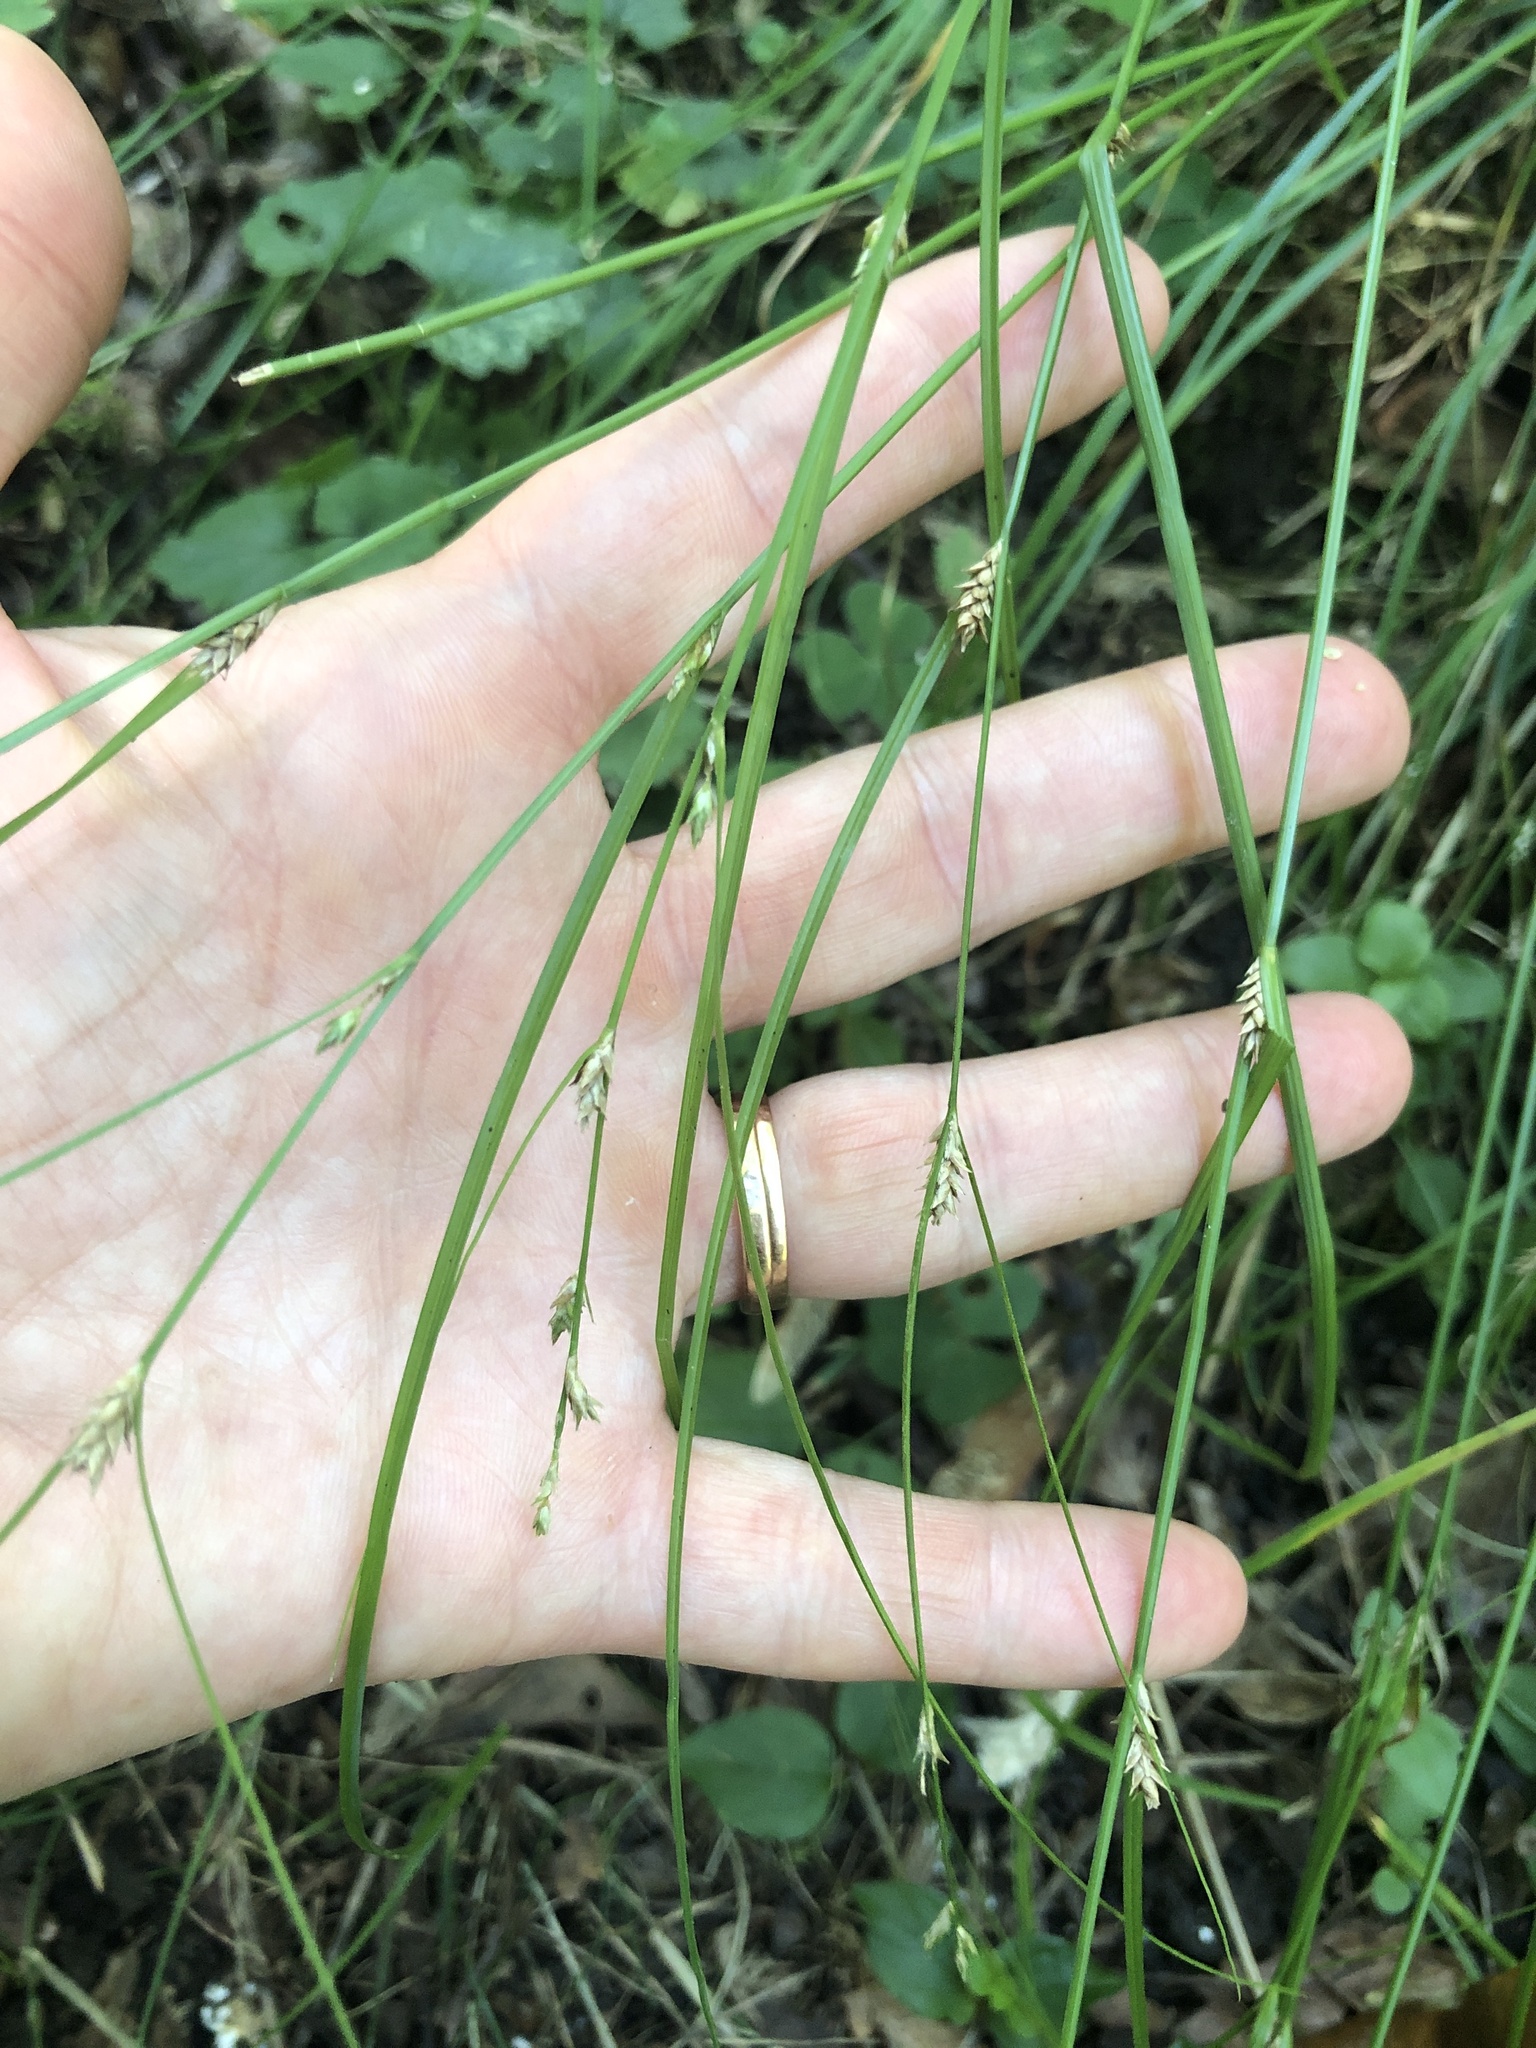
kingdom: Plantae
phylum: Tracheophyta
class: Liliopsida
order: Poales
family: Cyperaceae
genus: Carex
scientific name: Carex remota
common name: Remote sedge
